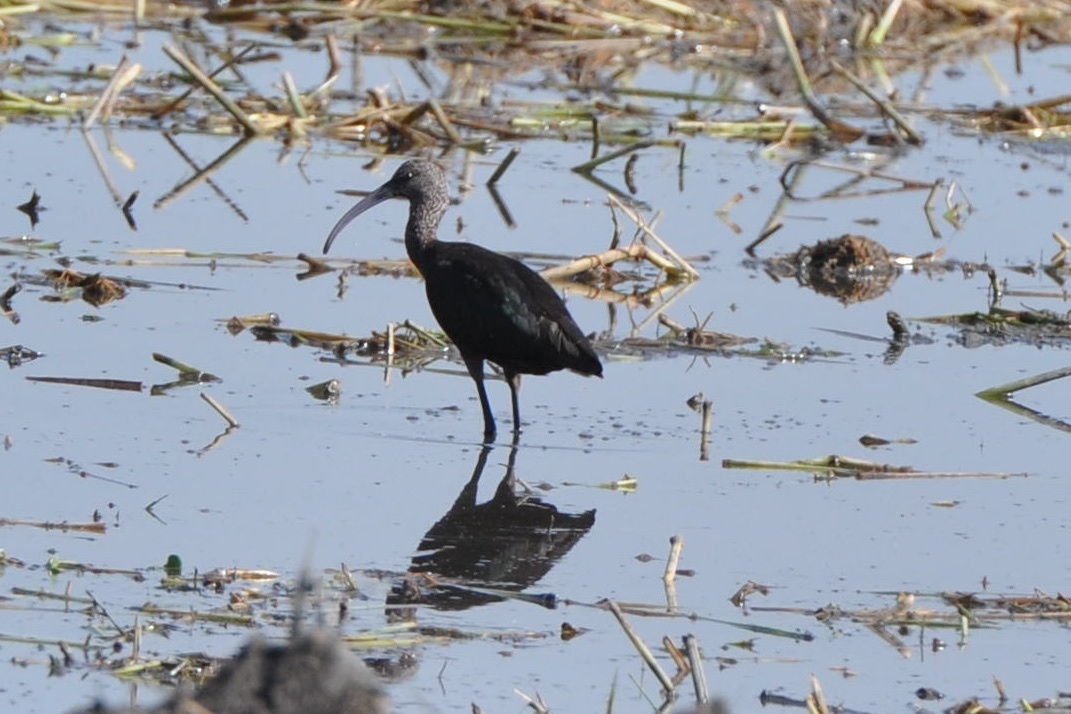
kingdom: Animalia
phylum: Chordata
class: Aves
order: Pelecaniformes
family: Threskiornithidae
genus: Plegadis
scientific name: Plegadis chihi
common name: White-faced ibis
